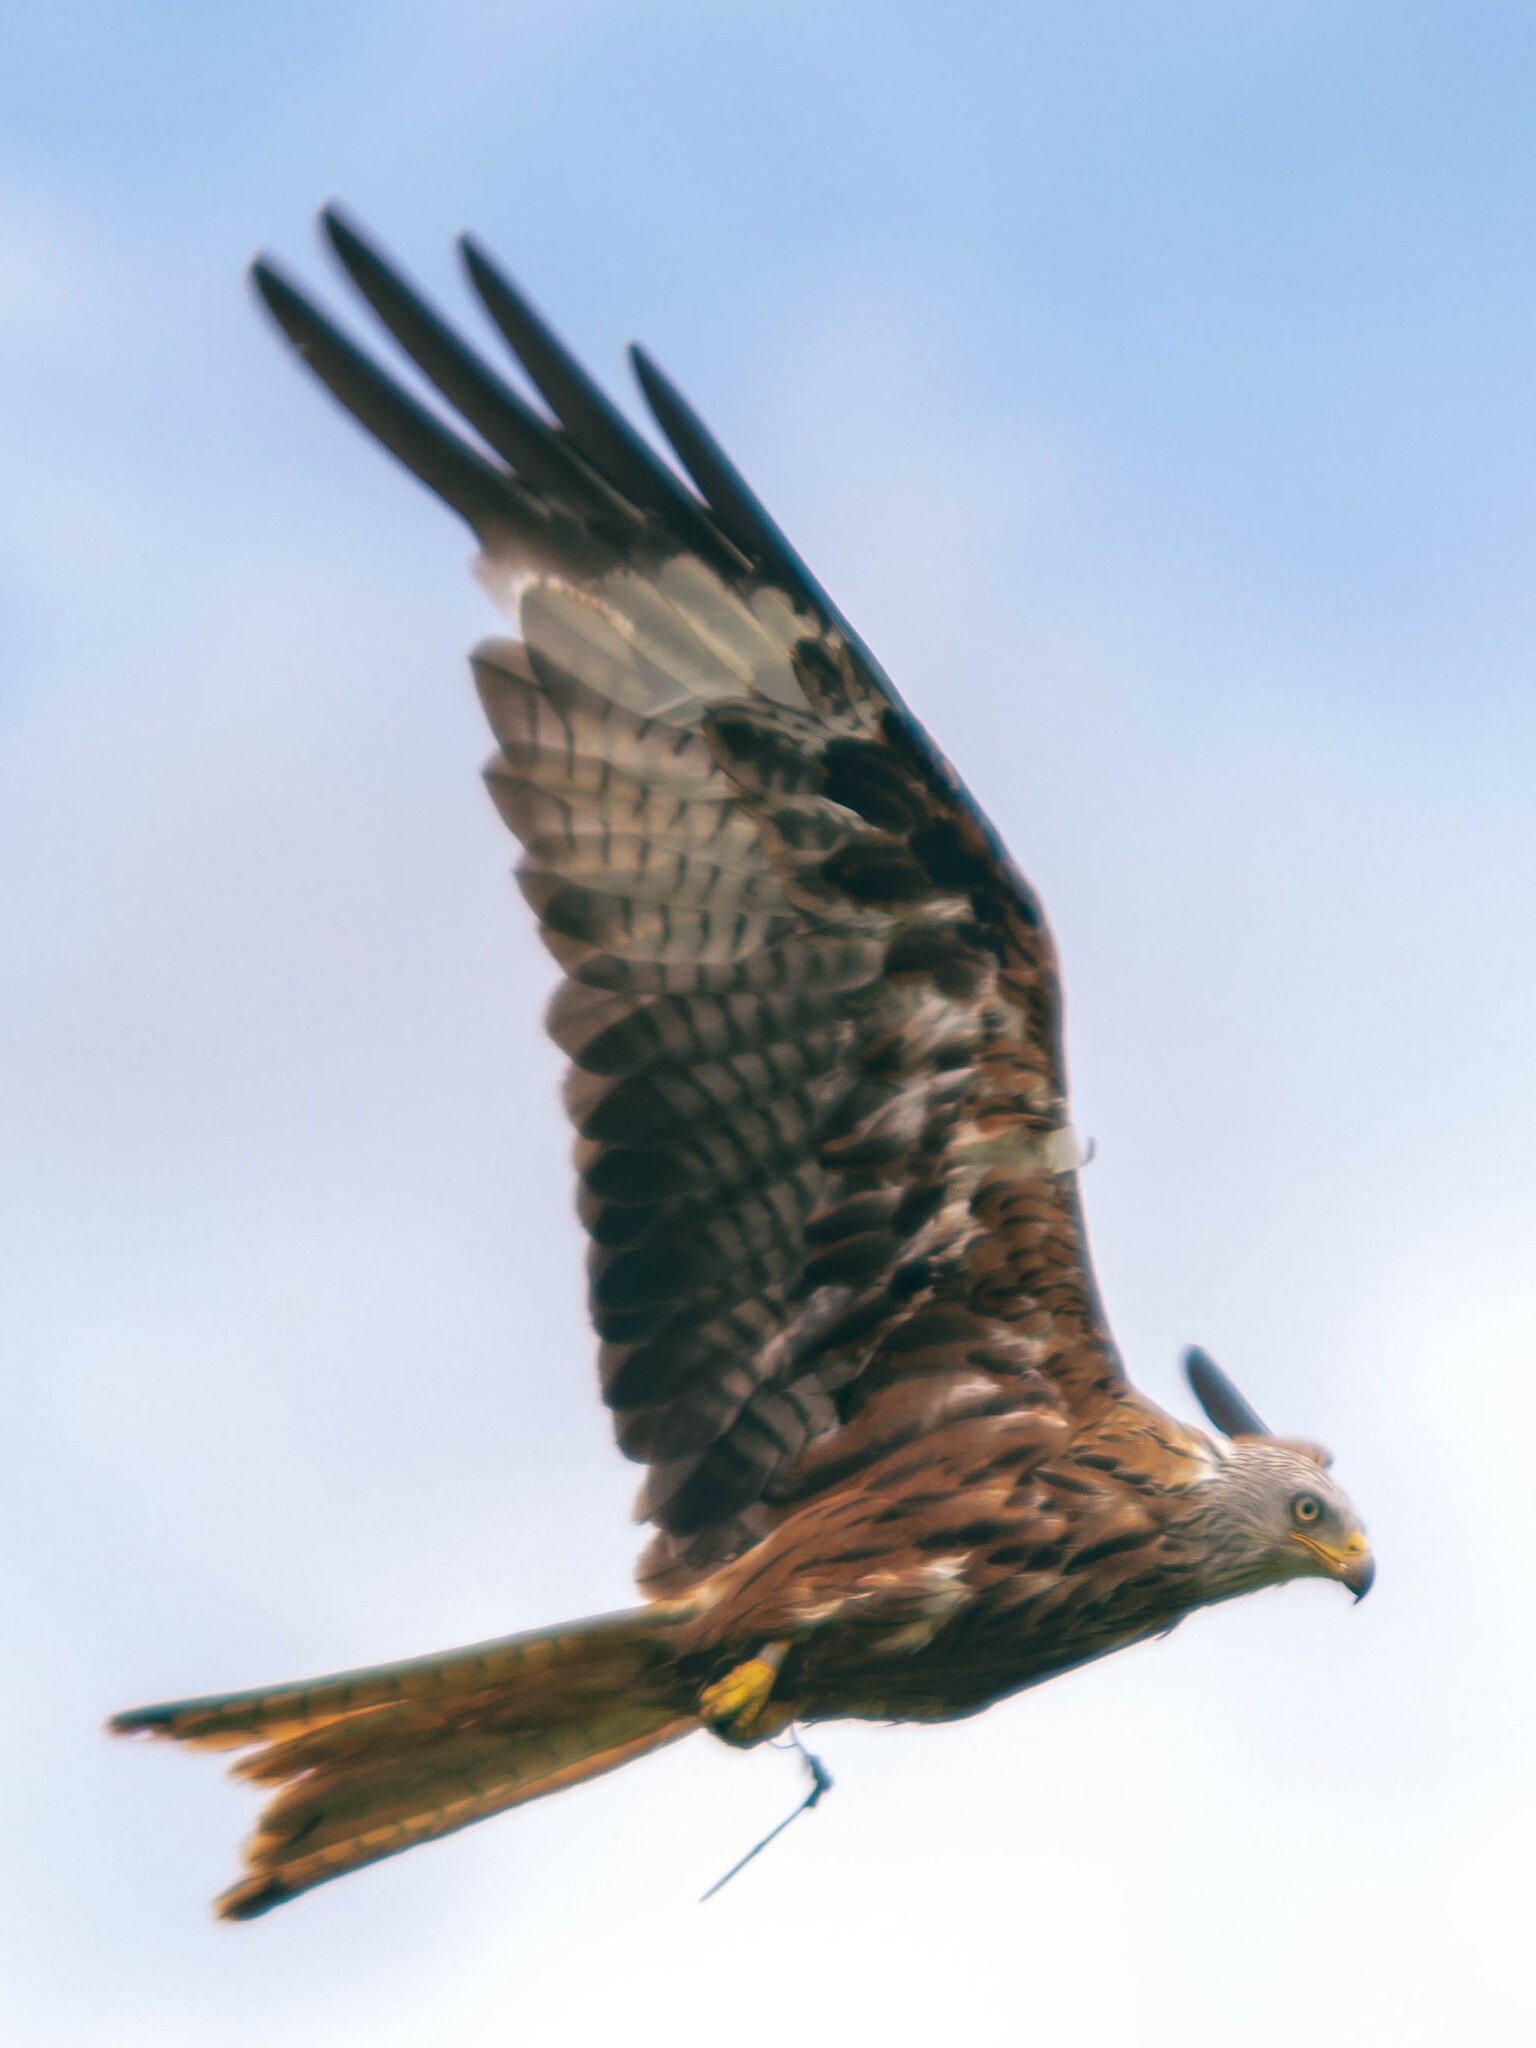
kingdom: Animalia
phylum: Chordata
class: Aves
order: Accipitriformes
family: Accipitridae
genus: Milvus
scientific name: Milvus milvus
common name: Red kite
